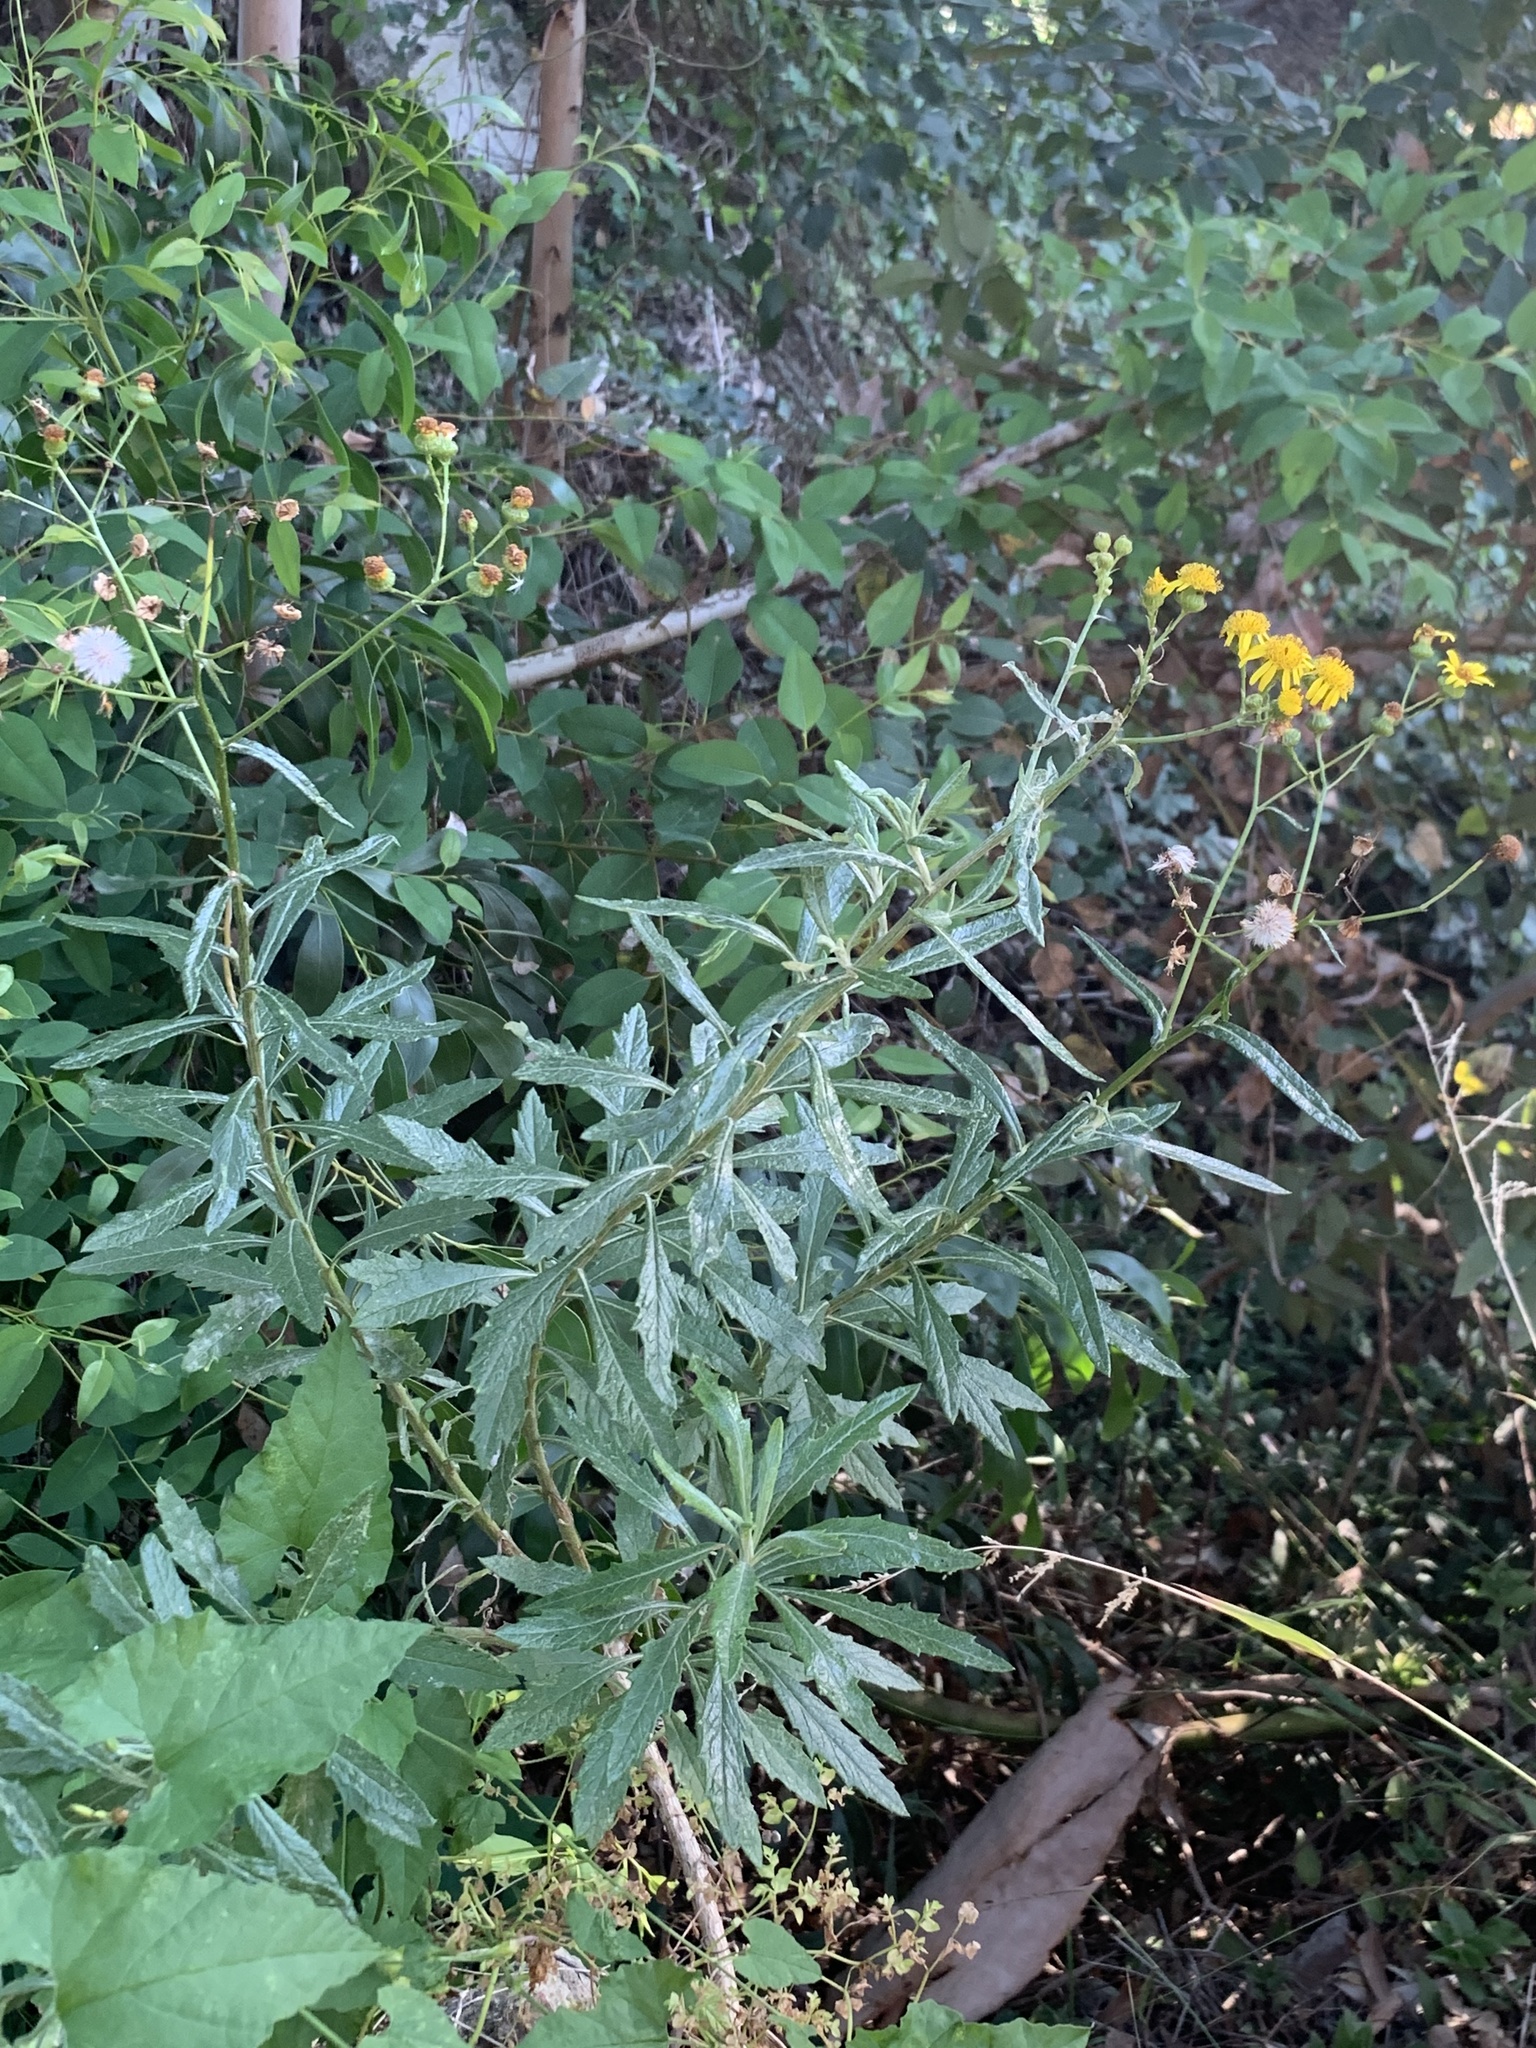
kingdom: Plantae
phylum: Tracheophyta
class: Magnoliopsida
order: Asterales
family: Asteraceae
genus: Senecio
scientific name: Senecio pterophorus
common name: Shoddy ragwort
